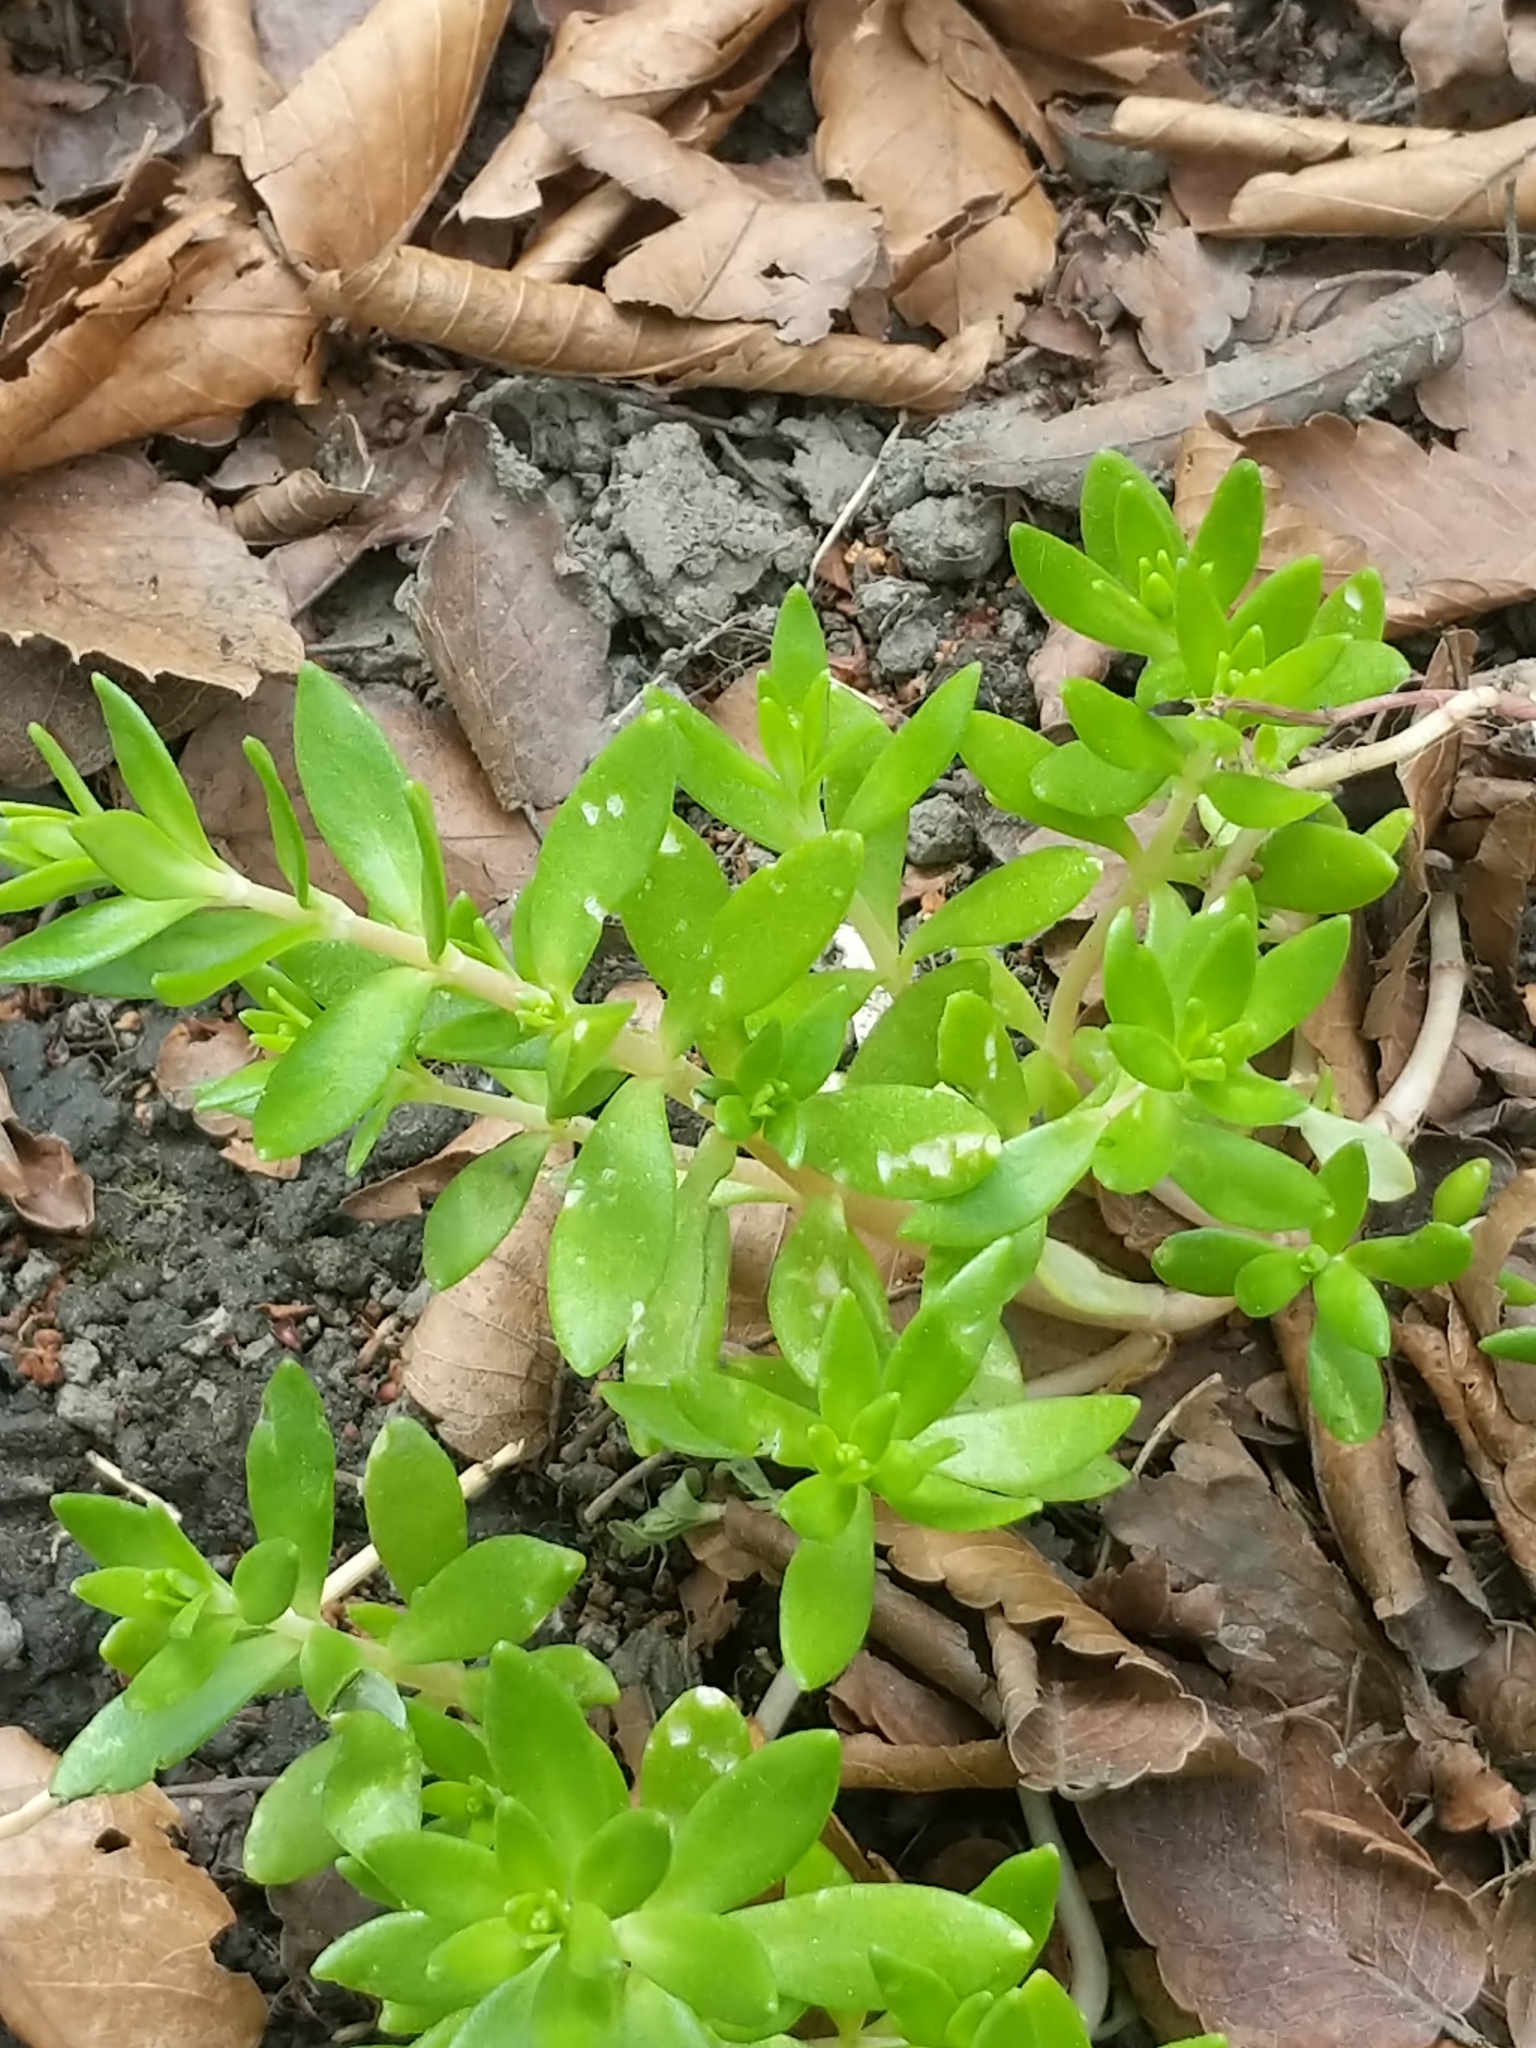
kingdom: Plantae
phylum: Tracheophyta
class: Magnoliopsida
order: Saxifragales
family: Crassulaceae
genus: Sedum
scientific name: Sedum sarmentosum
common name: Stringy stonecrop
